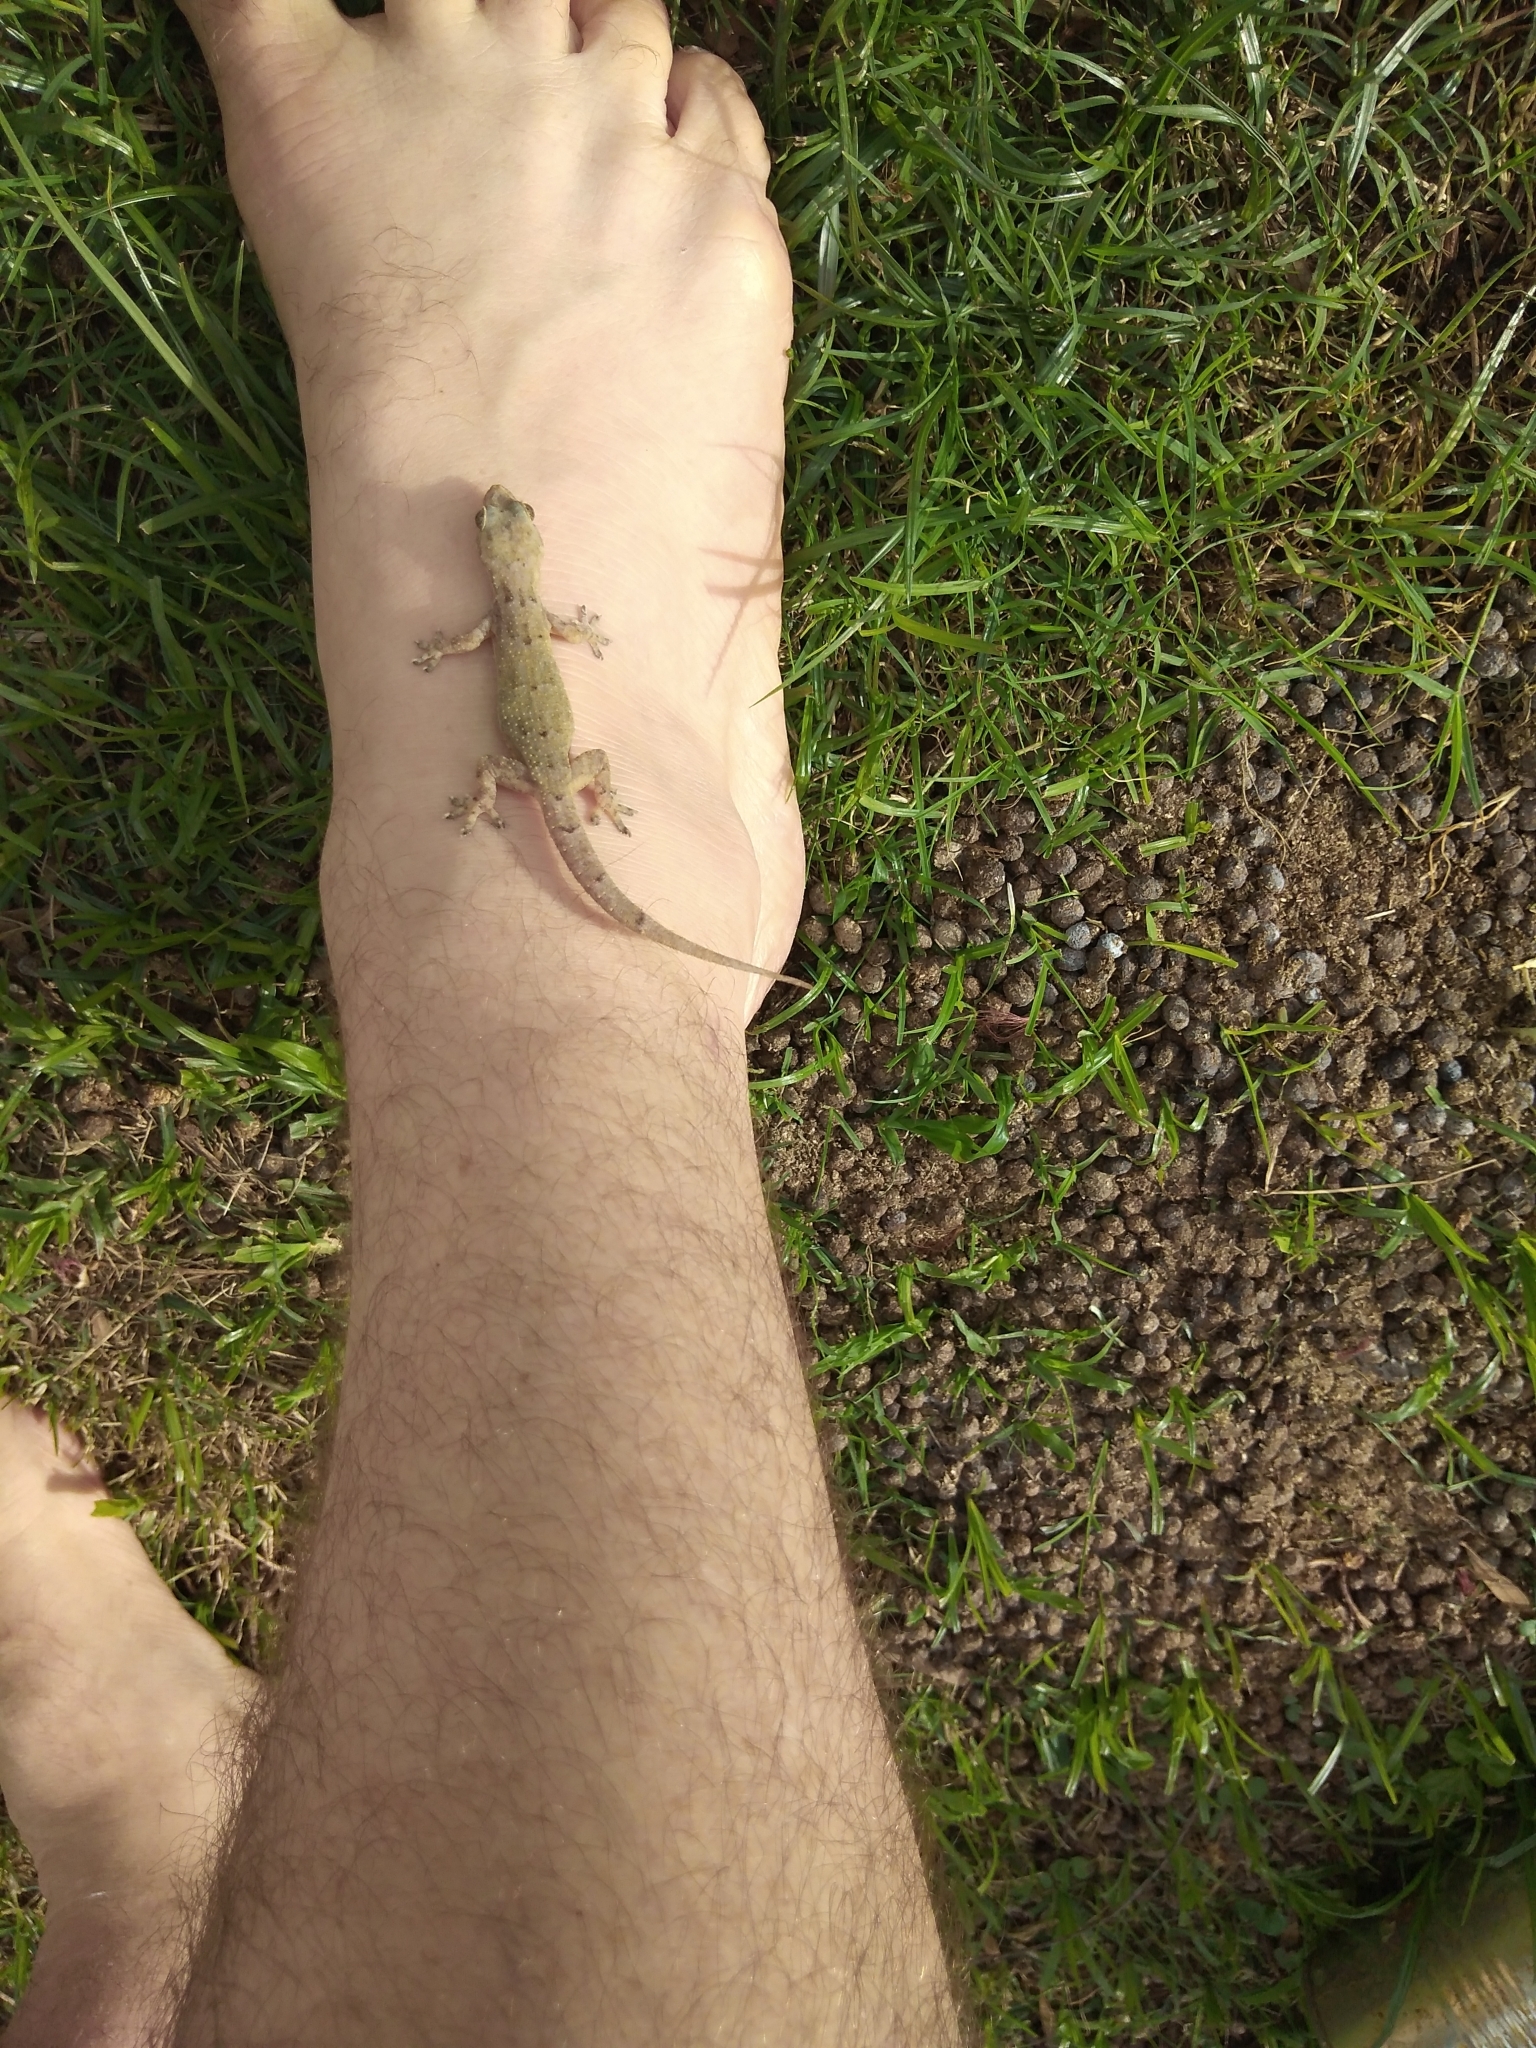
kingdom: Animalia
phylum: Chordata
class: Squamata
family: Gekkonidae
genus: Hemidactylus
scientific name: Hemidactylus mabouia
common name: House gecko
